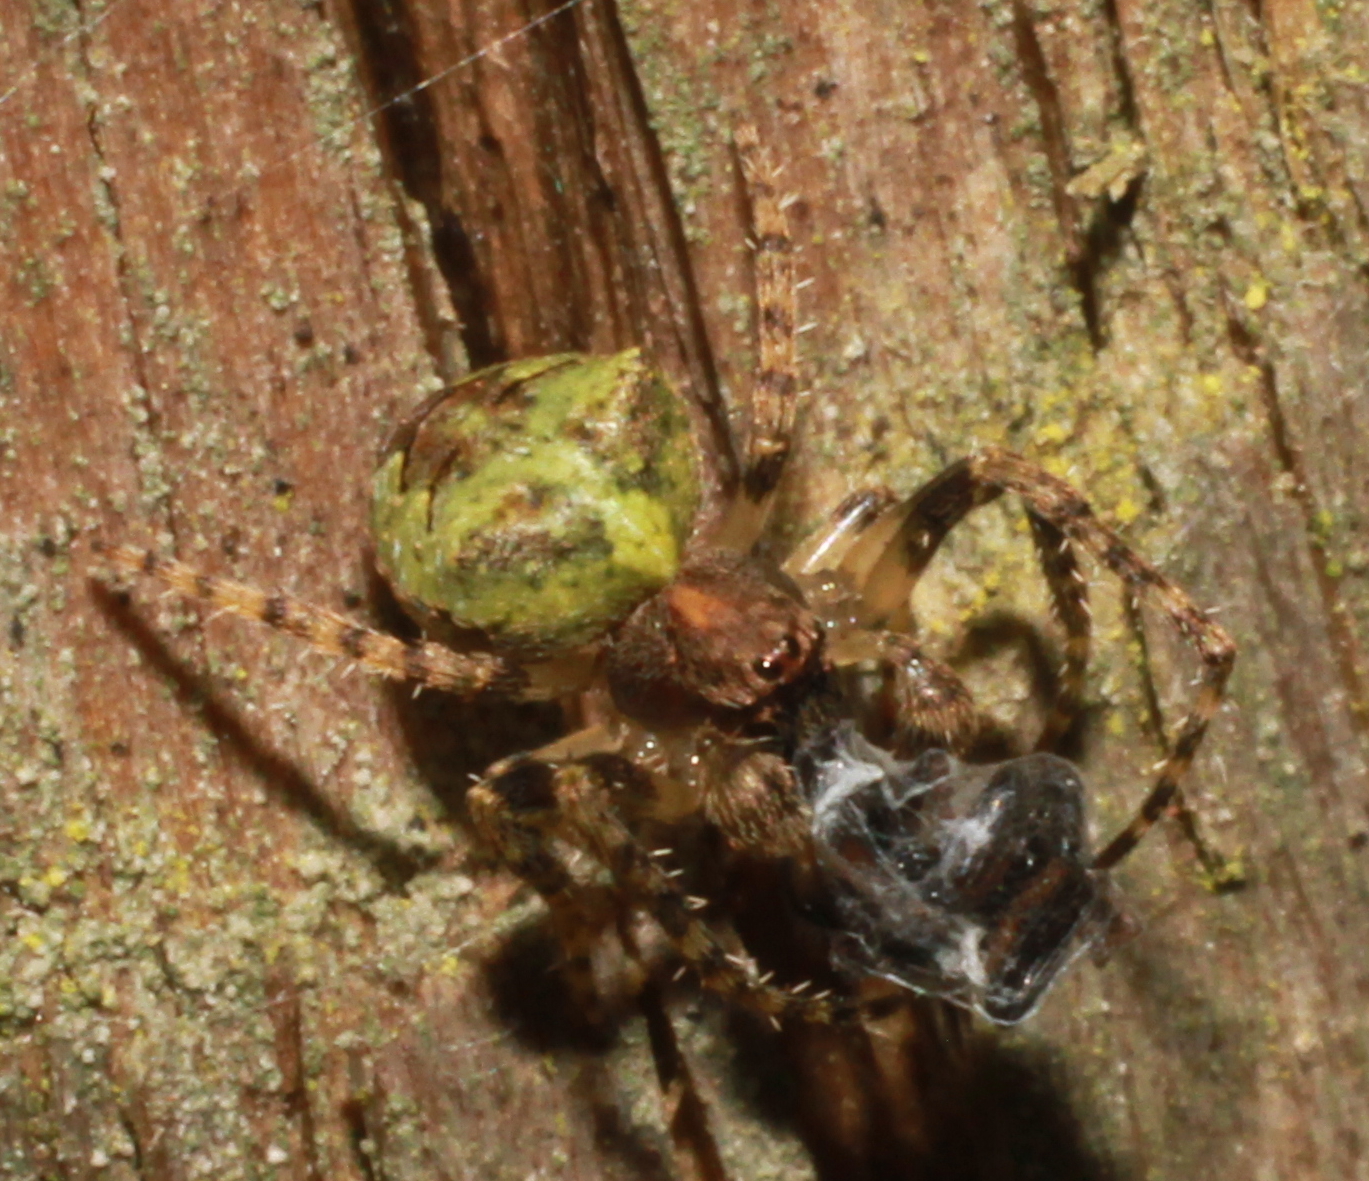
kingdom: Animalia
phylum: Arthropoda
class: Arachnida
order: Araneae
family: Araneidae
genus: Gibbaranea
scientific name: Gibbaranea gibbosa
